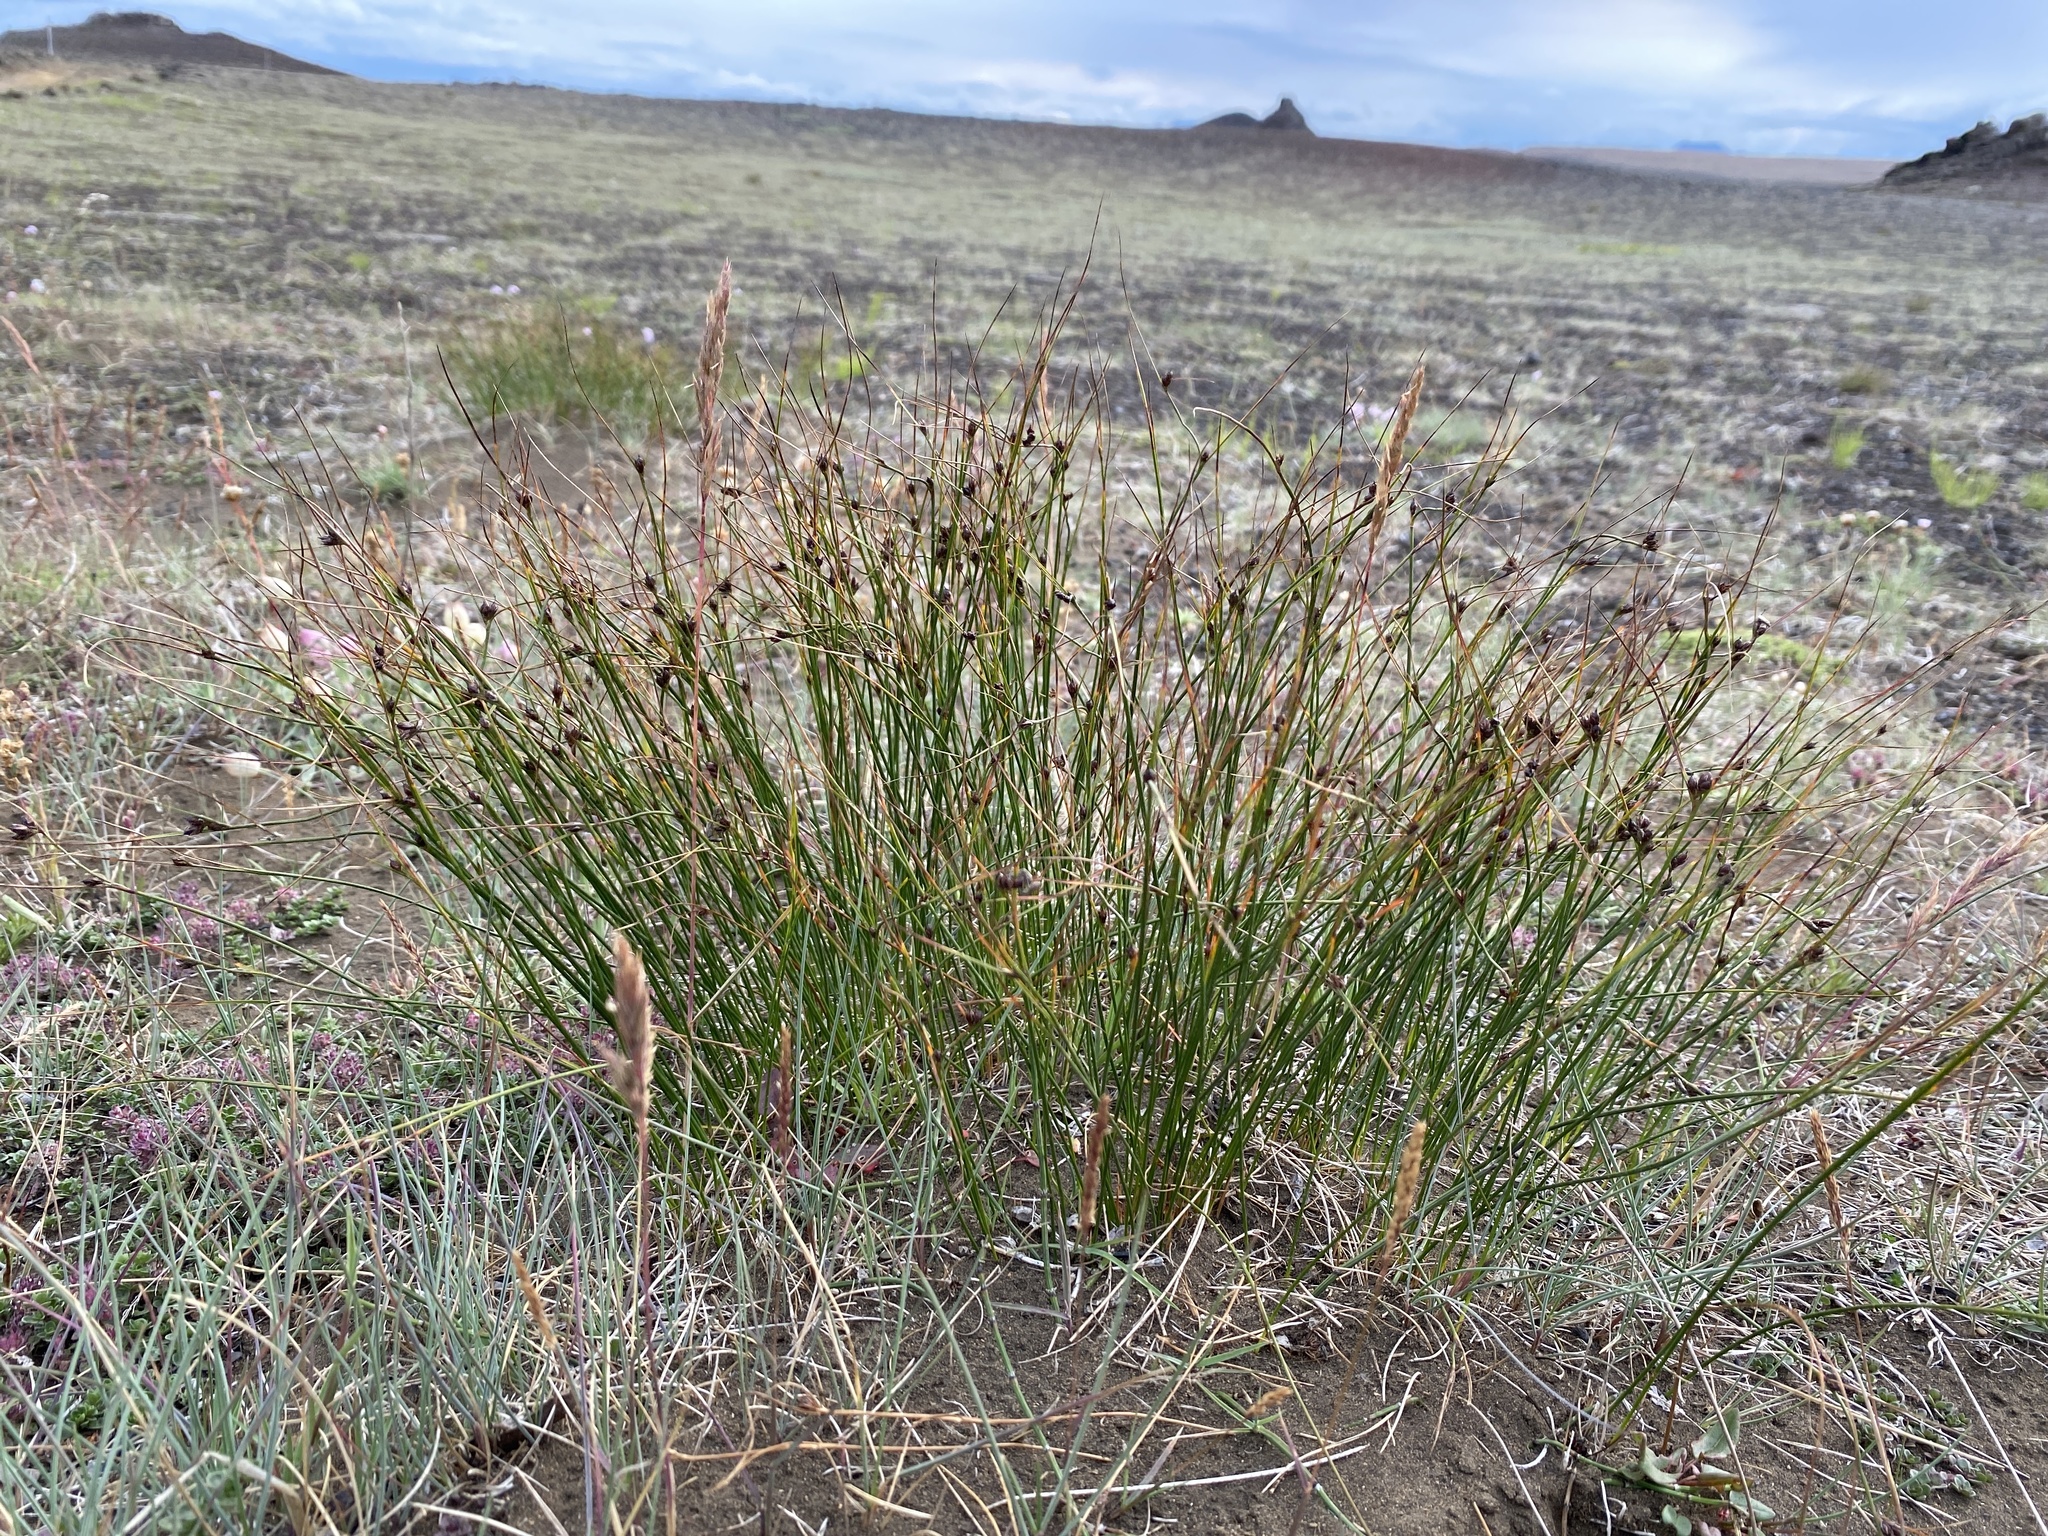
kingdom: Plantae
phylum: Tracheophyta
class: Liliopsida
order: Poales
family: Juncaceae
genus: Oreojuncus
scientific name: Oreojuncus trifidus
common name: Highland rush
